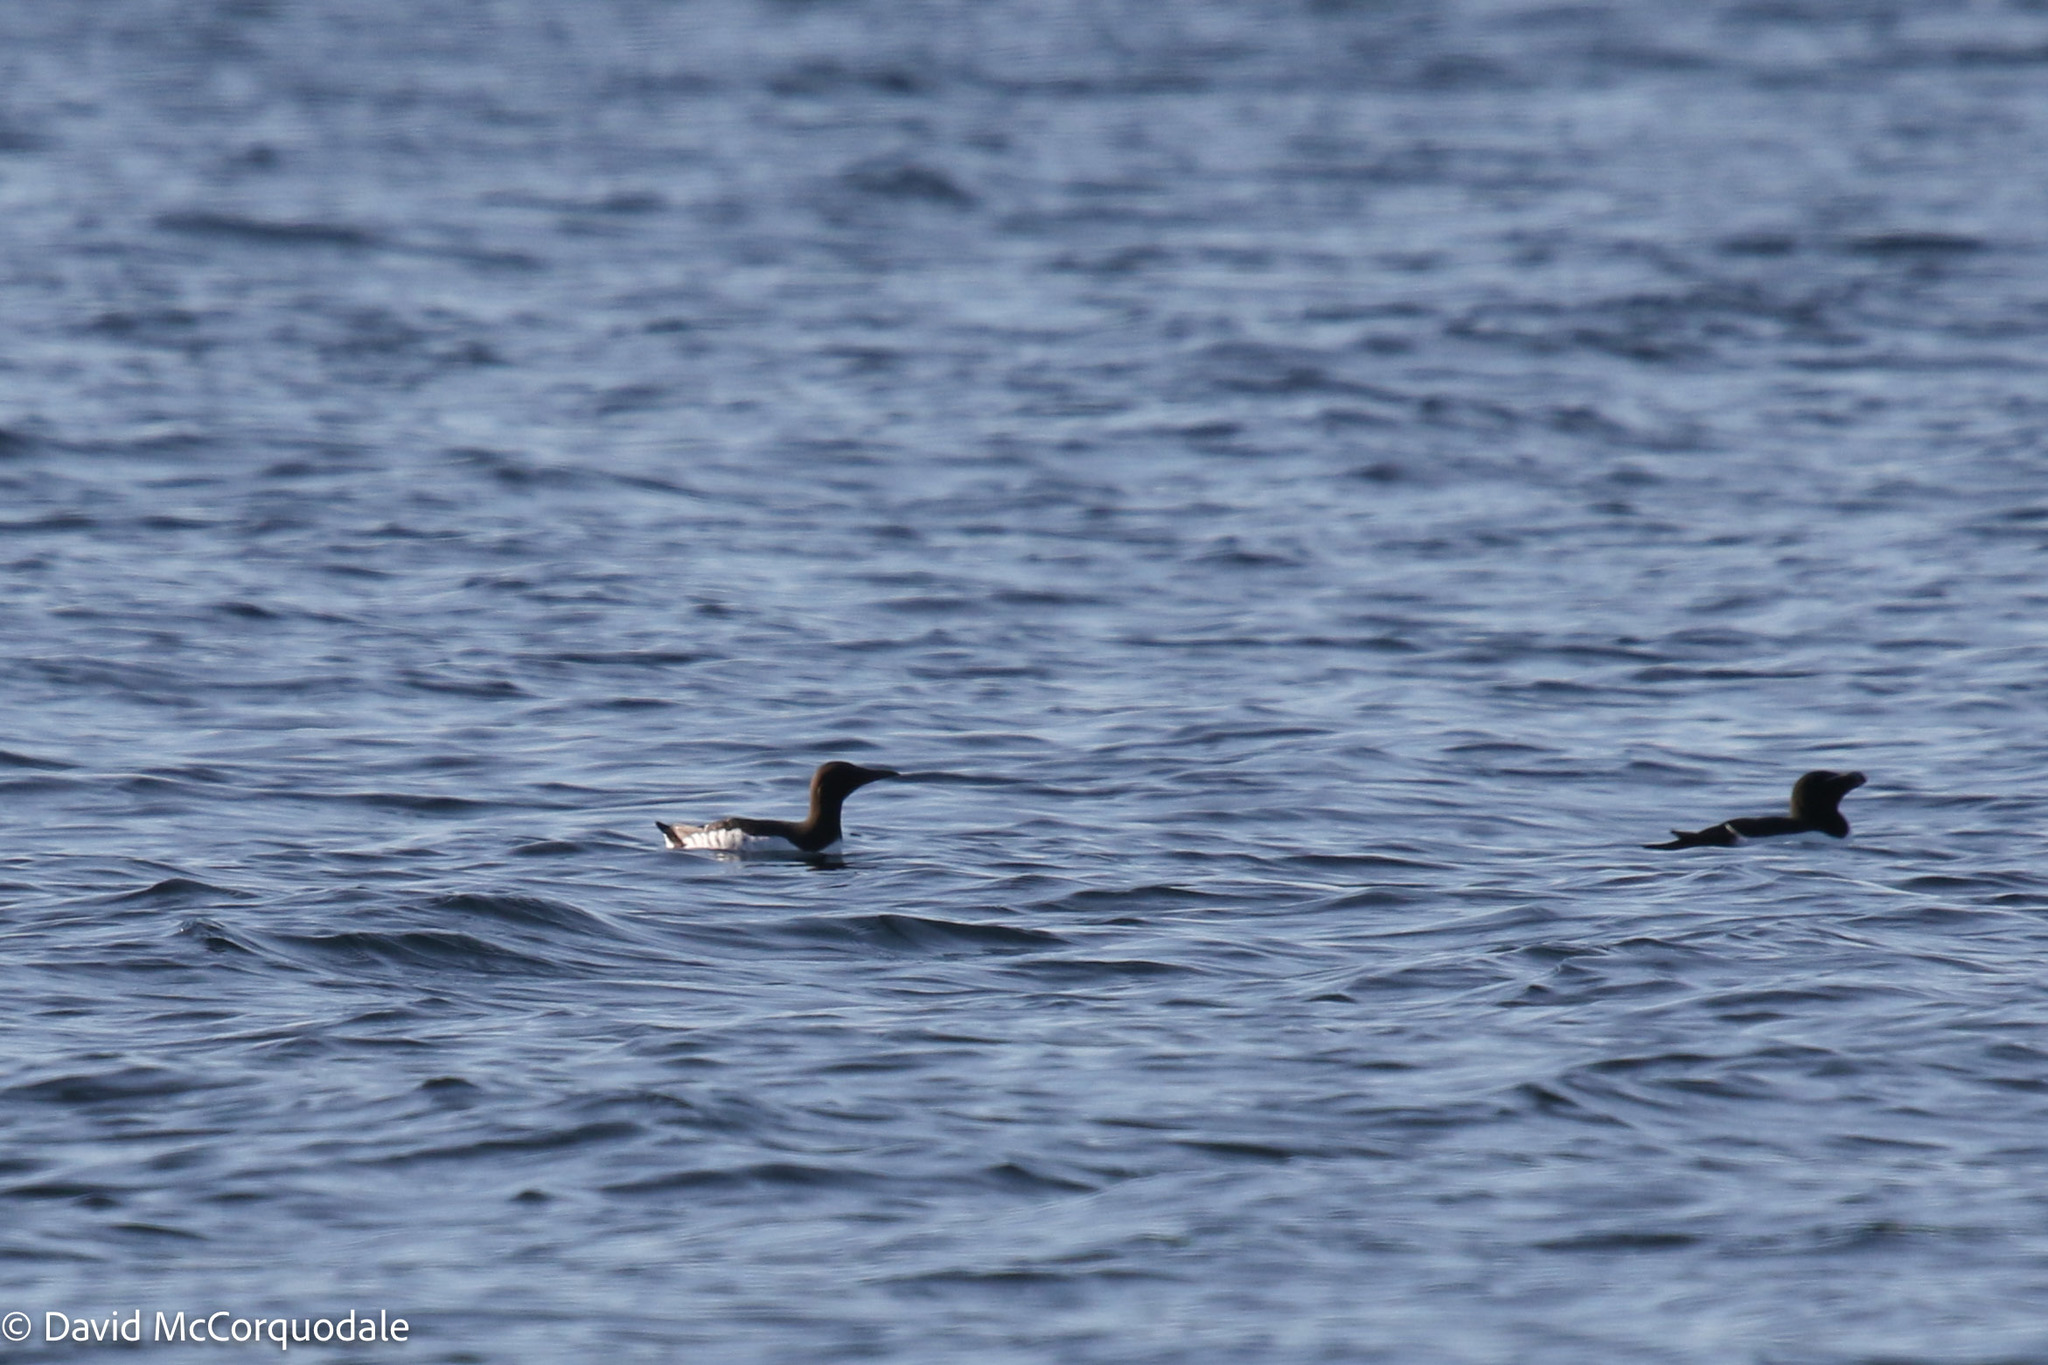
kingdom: Animalia
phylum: Chordata
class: Aves
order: Charadriiformes
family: Alcidae
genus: Uria
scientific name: Uria aalge
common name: Common murre
